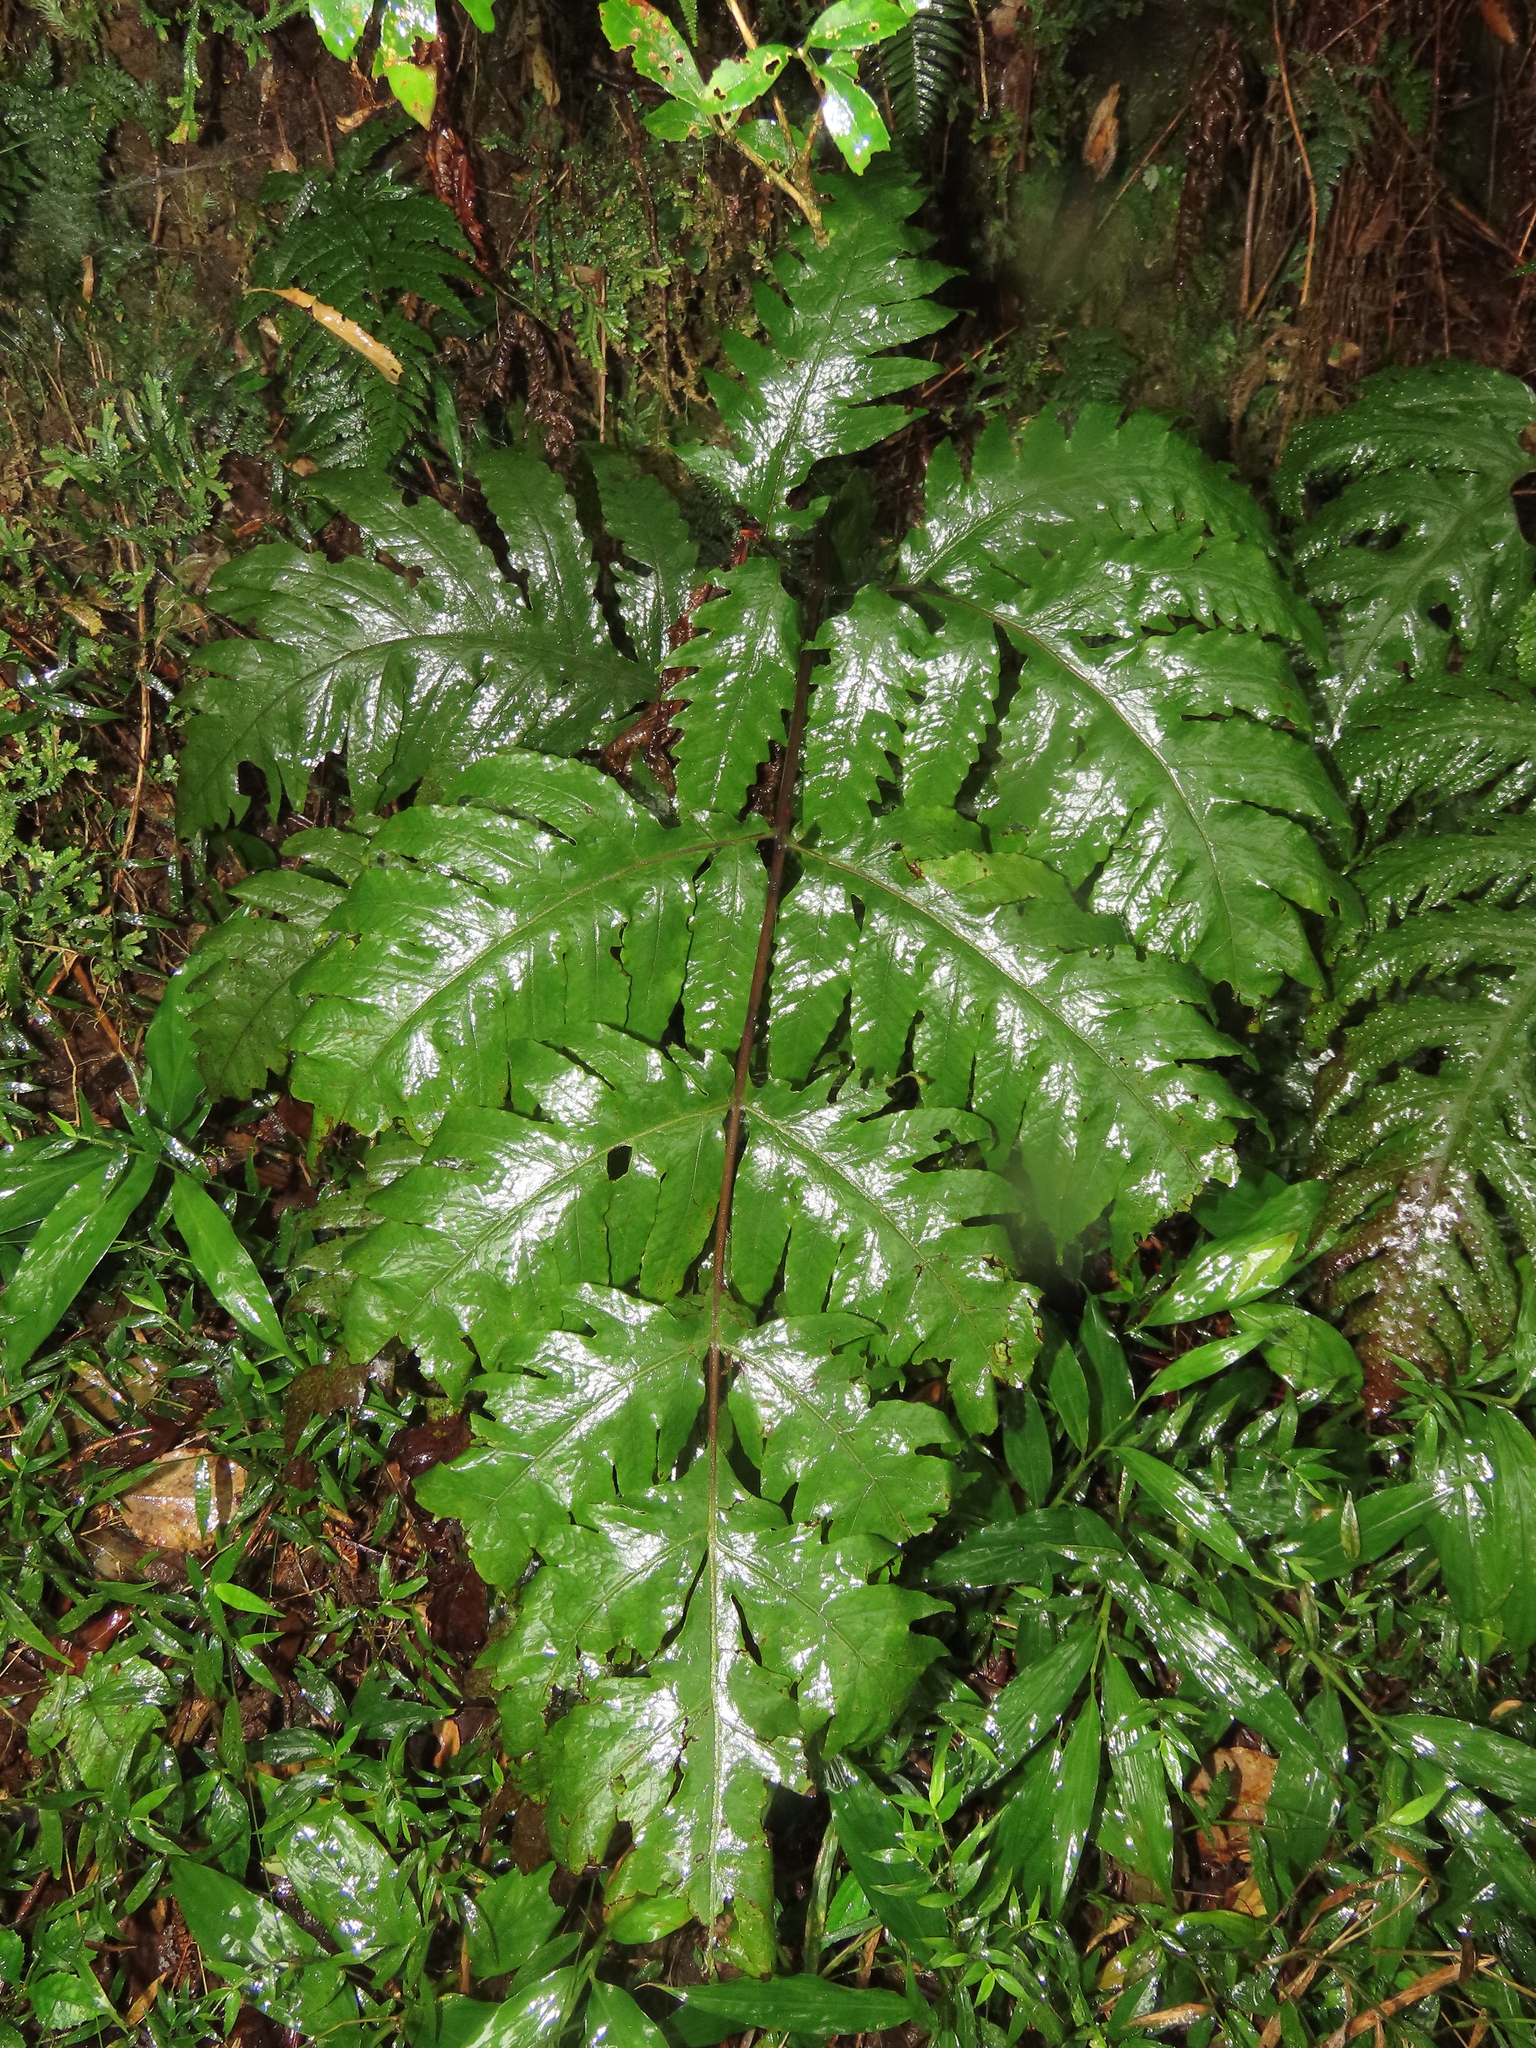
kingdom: Plantae
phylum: Tracheophyta
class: Polypodiopsida
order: Polypodiales
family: Tectariaceae
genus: Tectaria
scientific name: Tectaria griffithii
